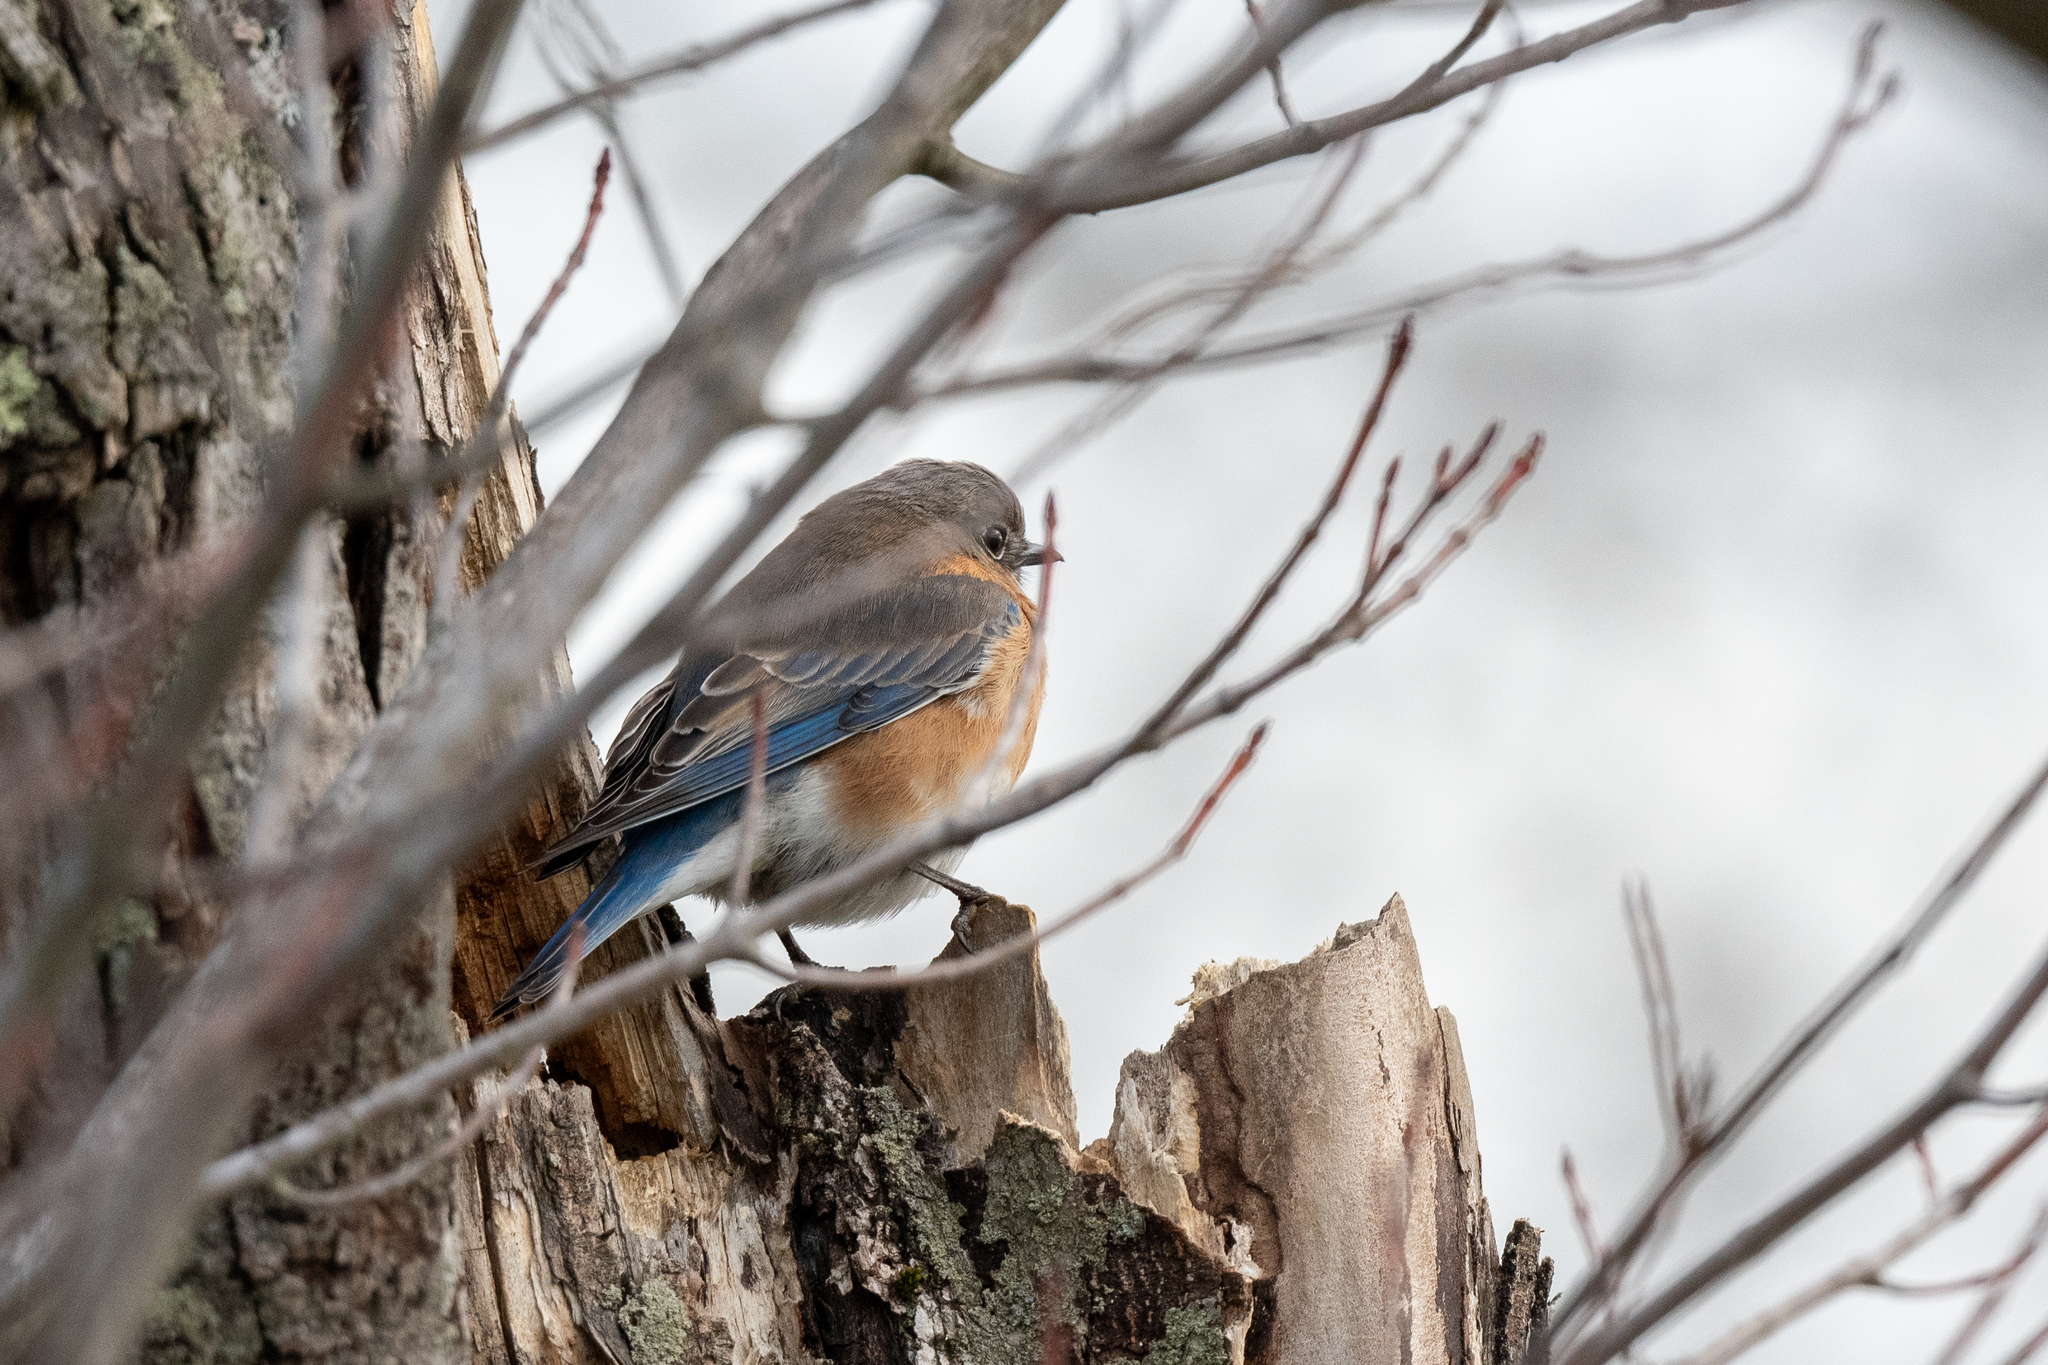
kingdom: Animalia
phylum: Chordata
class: Aves
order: Passeriformes
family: Turdidae
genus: Sialia
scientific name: Sialia sialis
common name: Eastern bluebird
